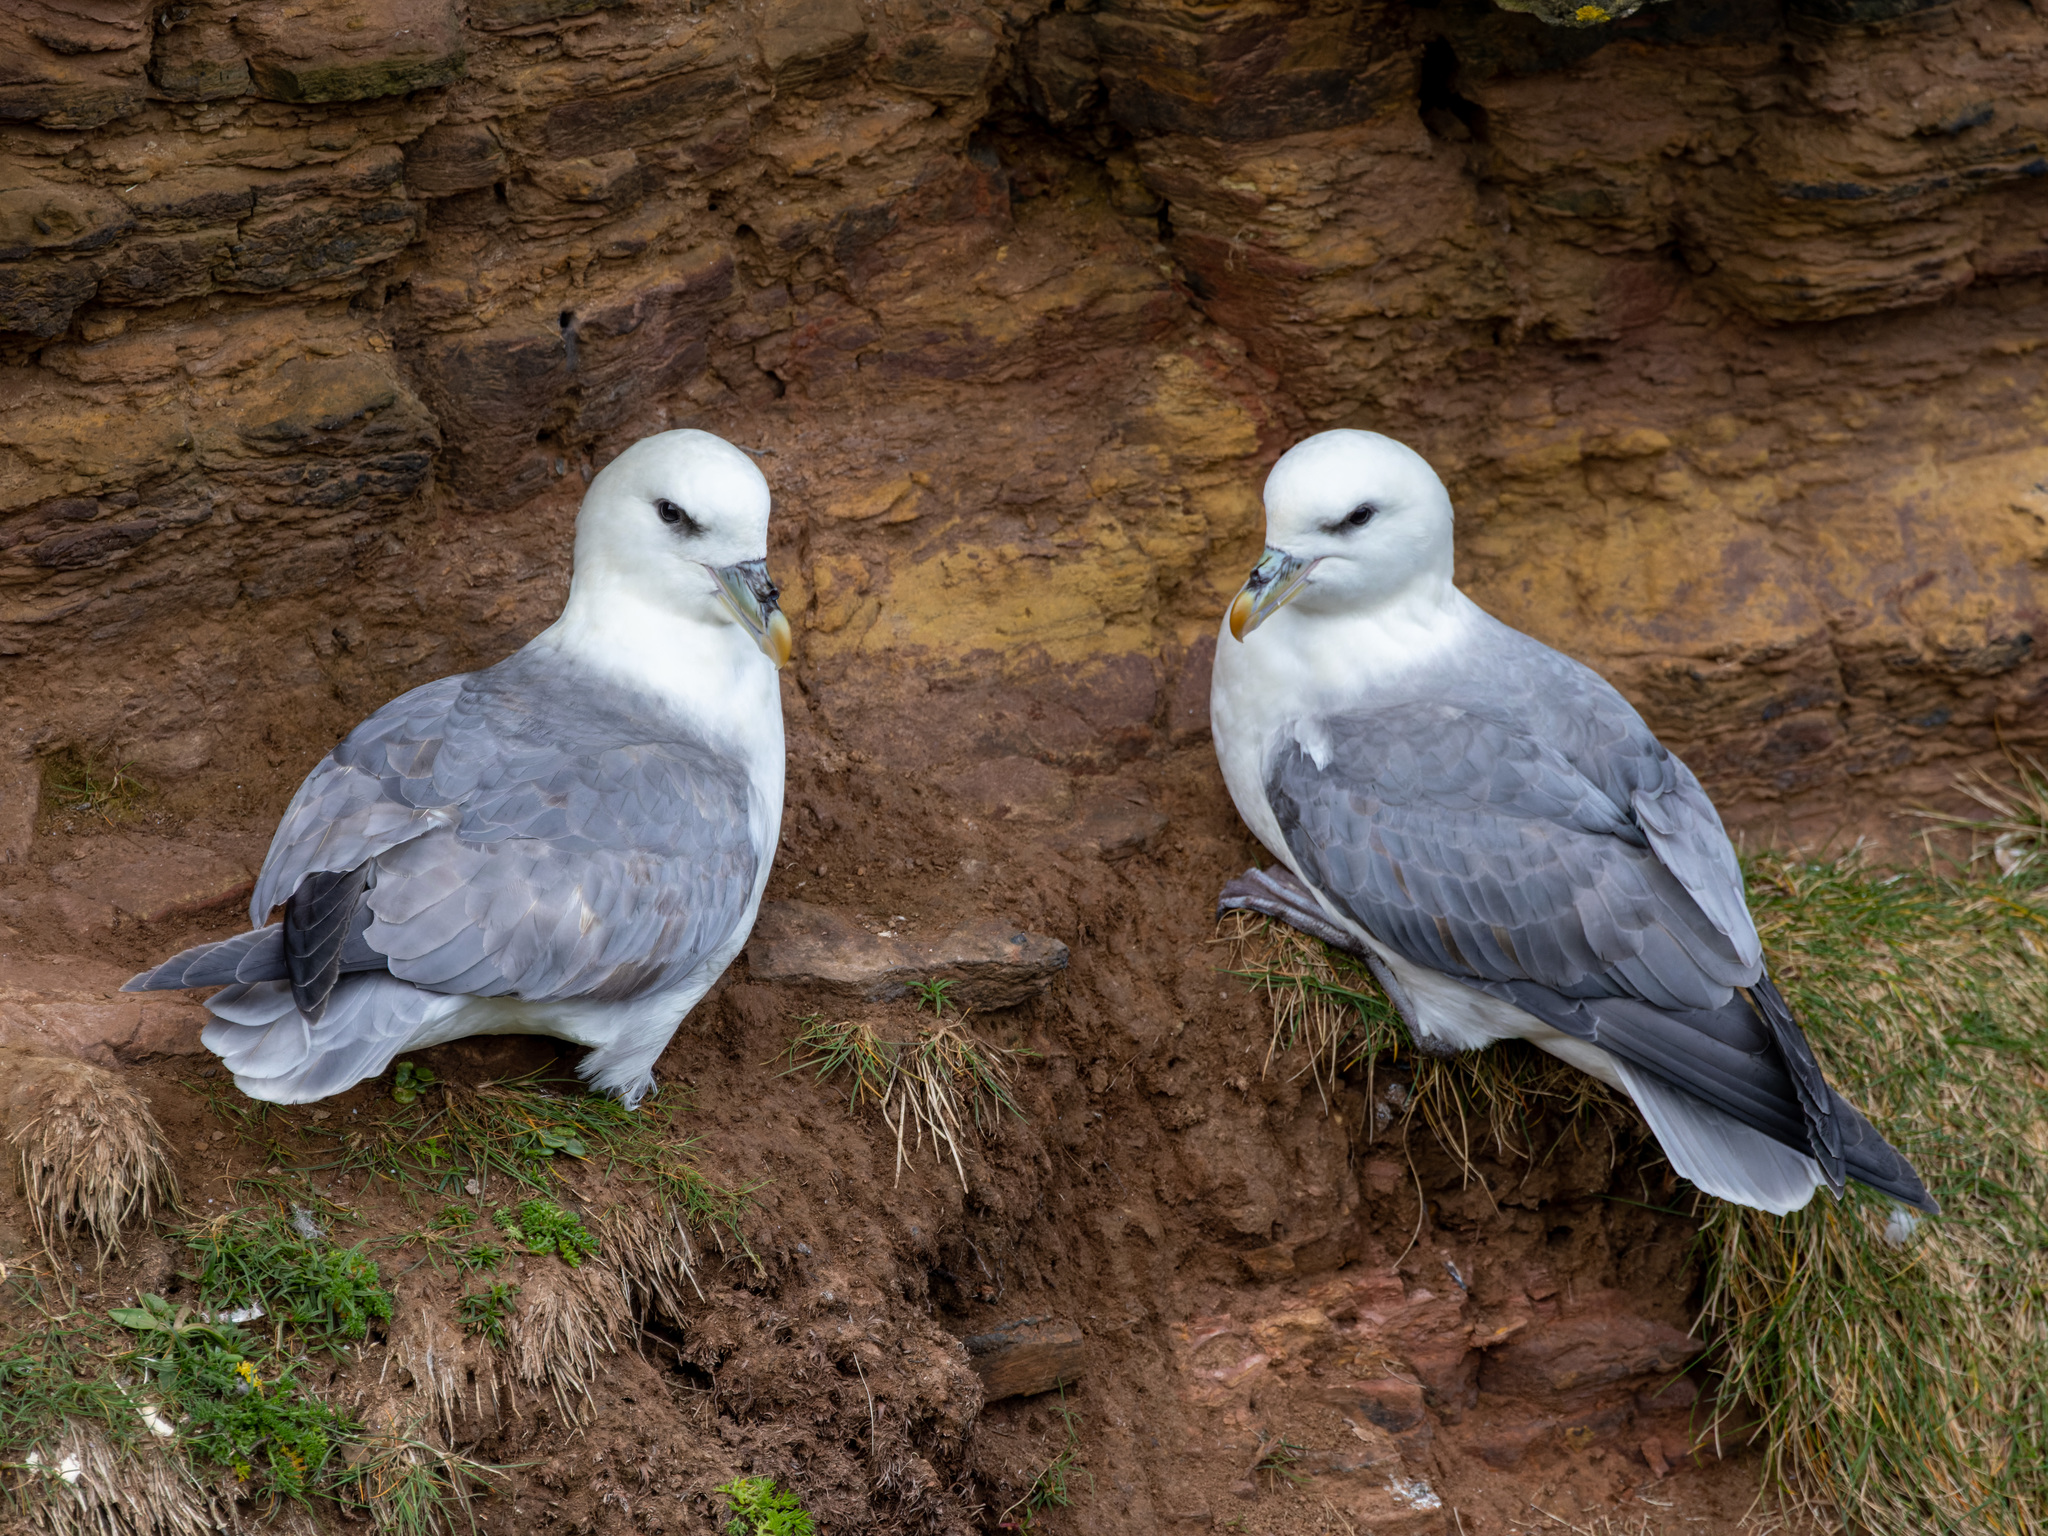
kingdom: Animalia
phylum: Chordata
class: Aves
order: Procellariiformes
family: Procellariidae
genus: Fulmarus
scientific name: Fulmarus glacialis
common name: Northern fulmar
